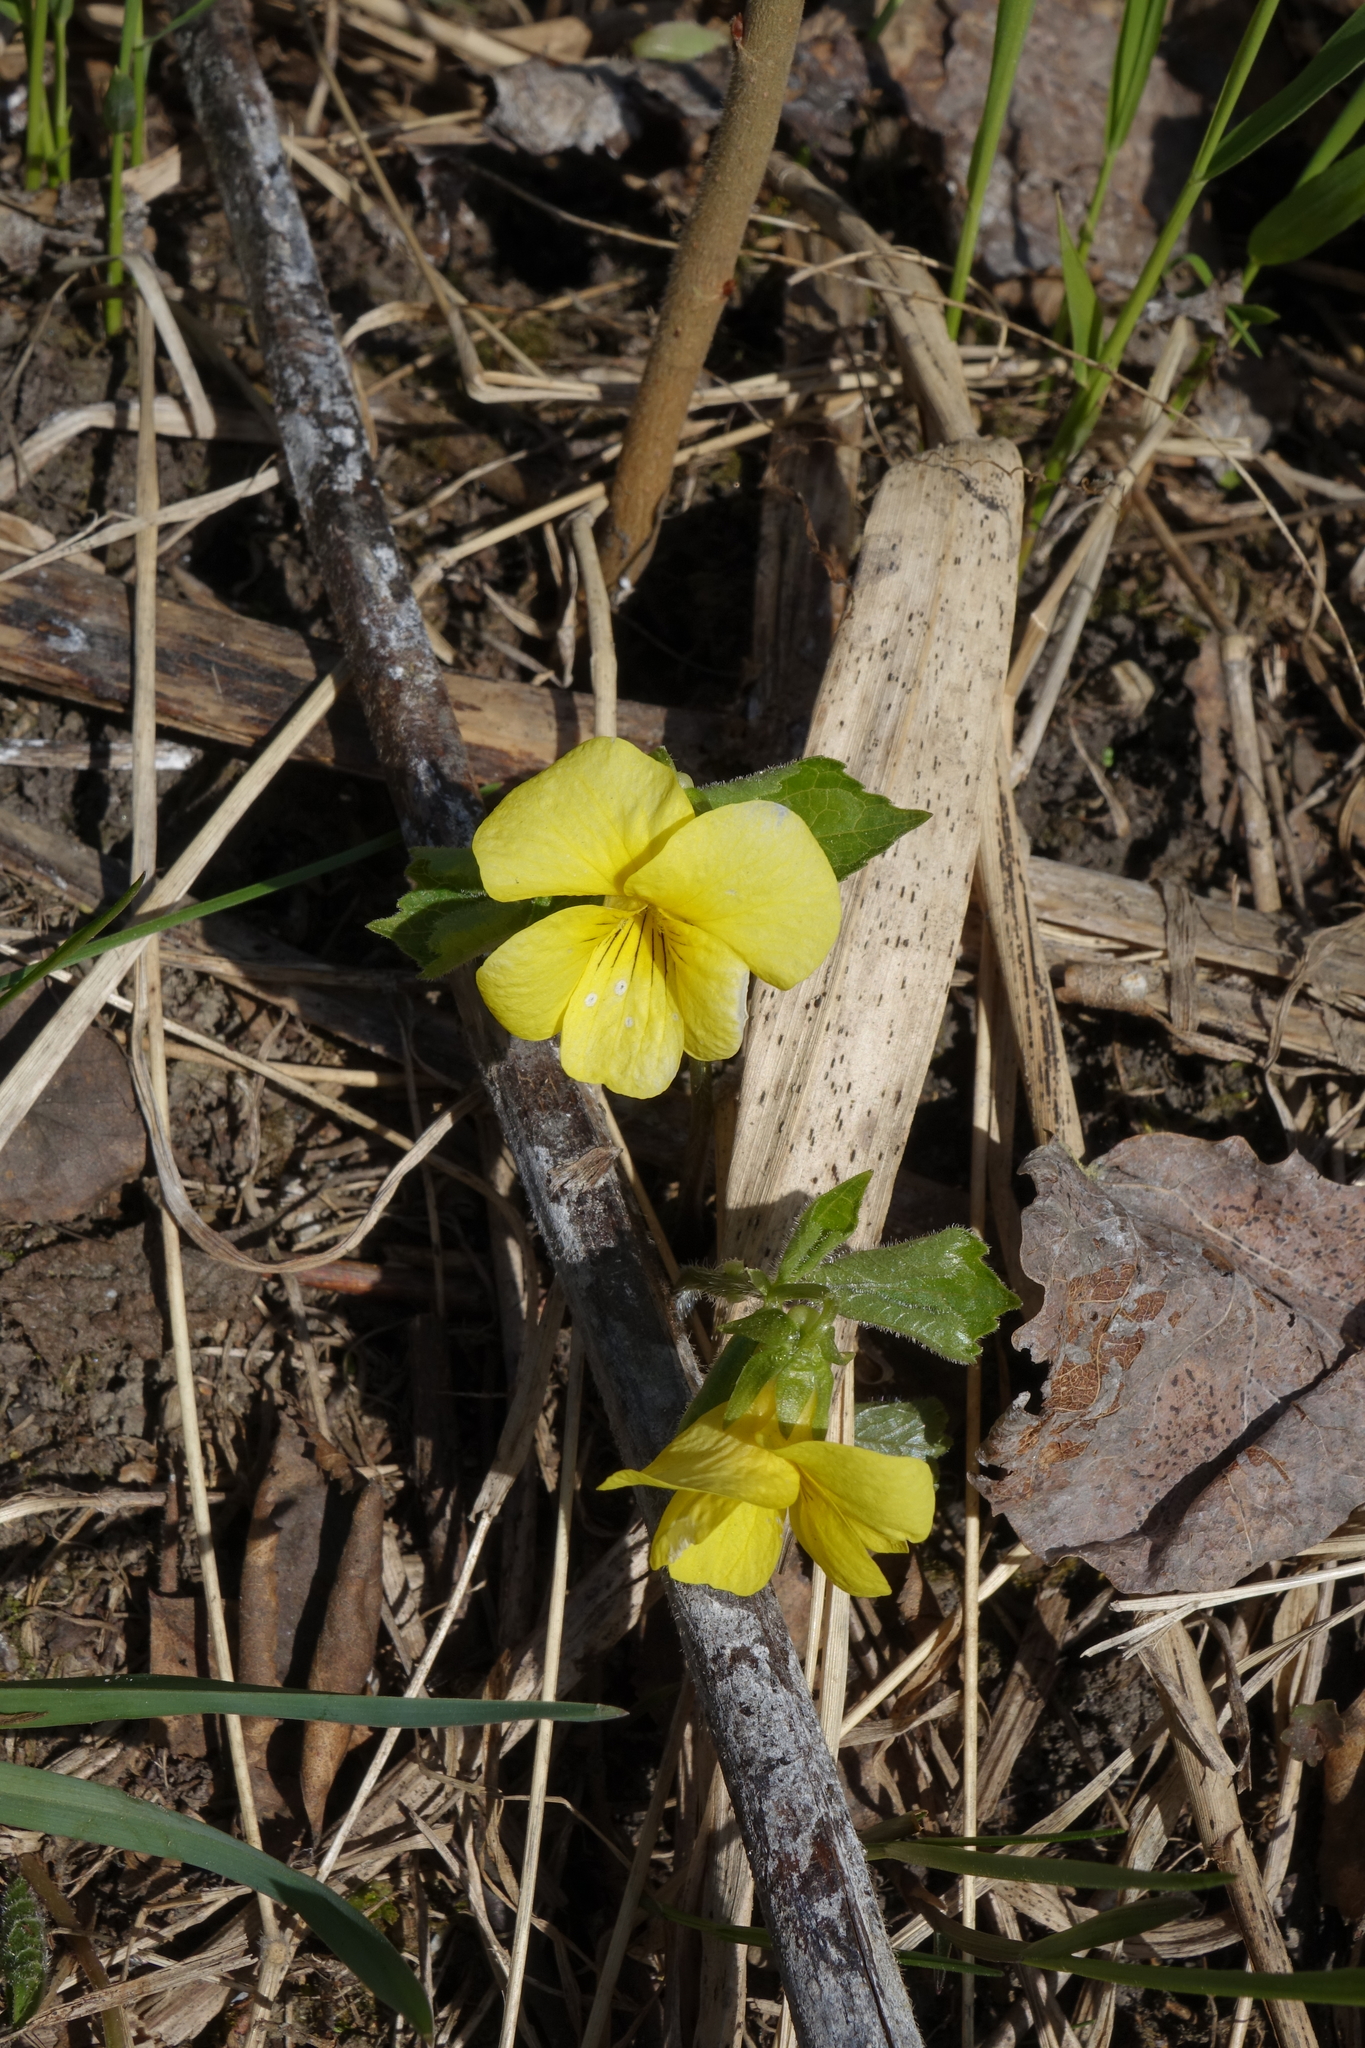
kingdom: Plantae
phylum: Tracheophyta
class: Magnoliopsida
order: Malpighiales
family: Violaceae
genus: Viola
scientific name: Viola uniflora
